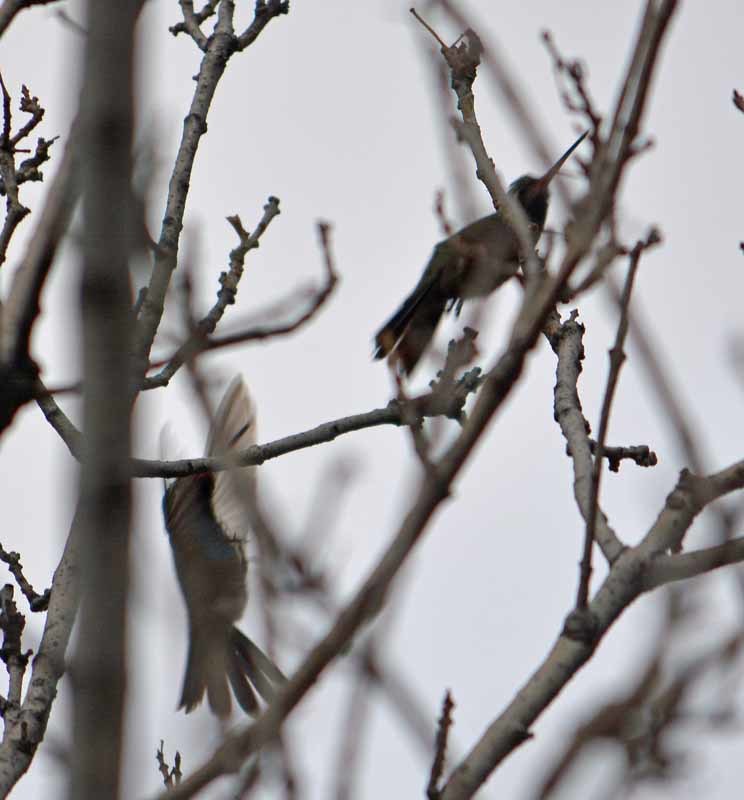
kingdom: Animalia
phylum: Chordata
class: Aves
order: Apodiformes
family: Trochilidae
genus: Cynanthus
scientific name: Cynanthus latirostris
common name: Broad-billed hummingbird
